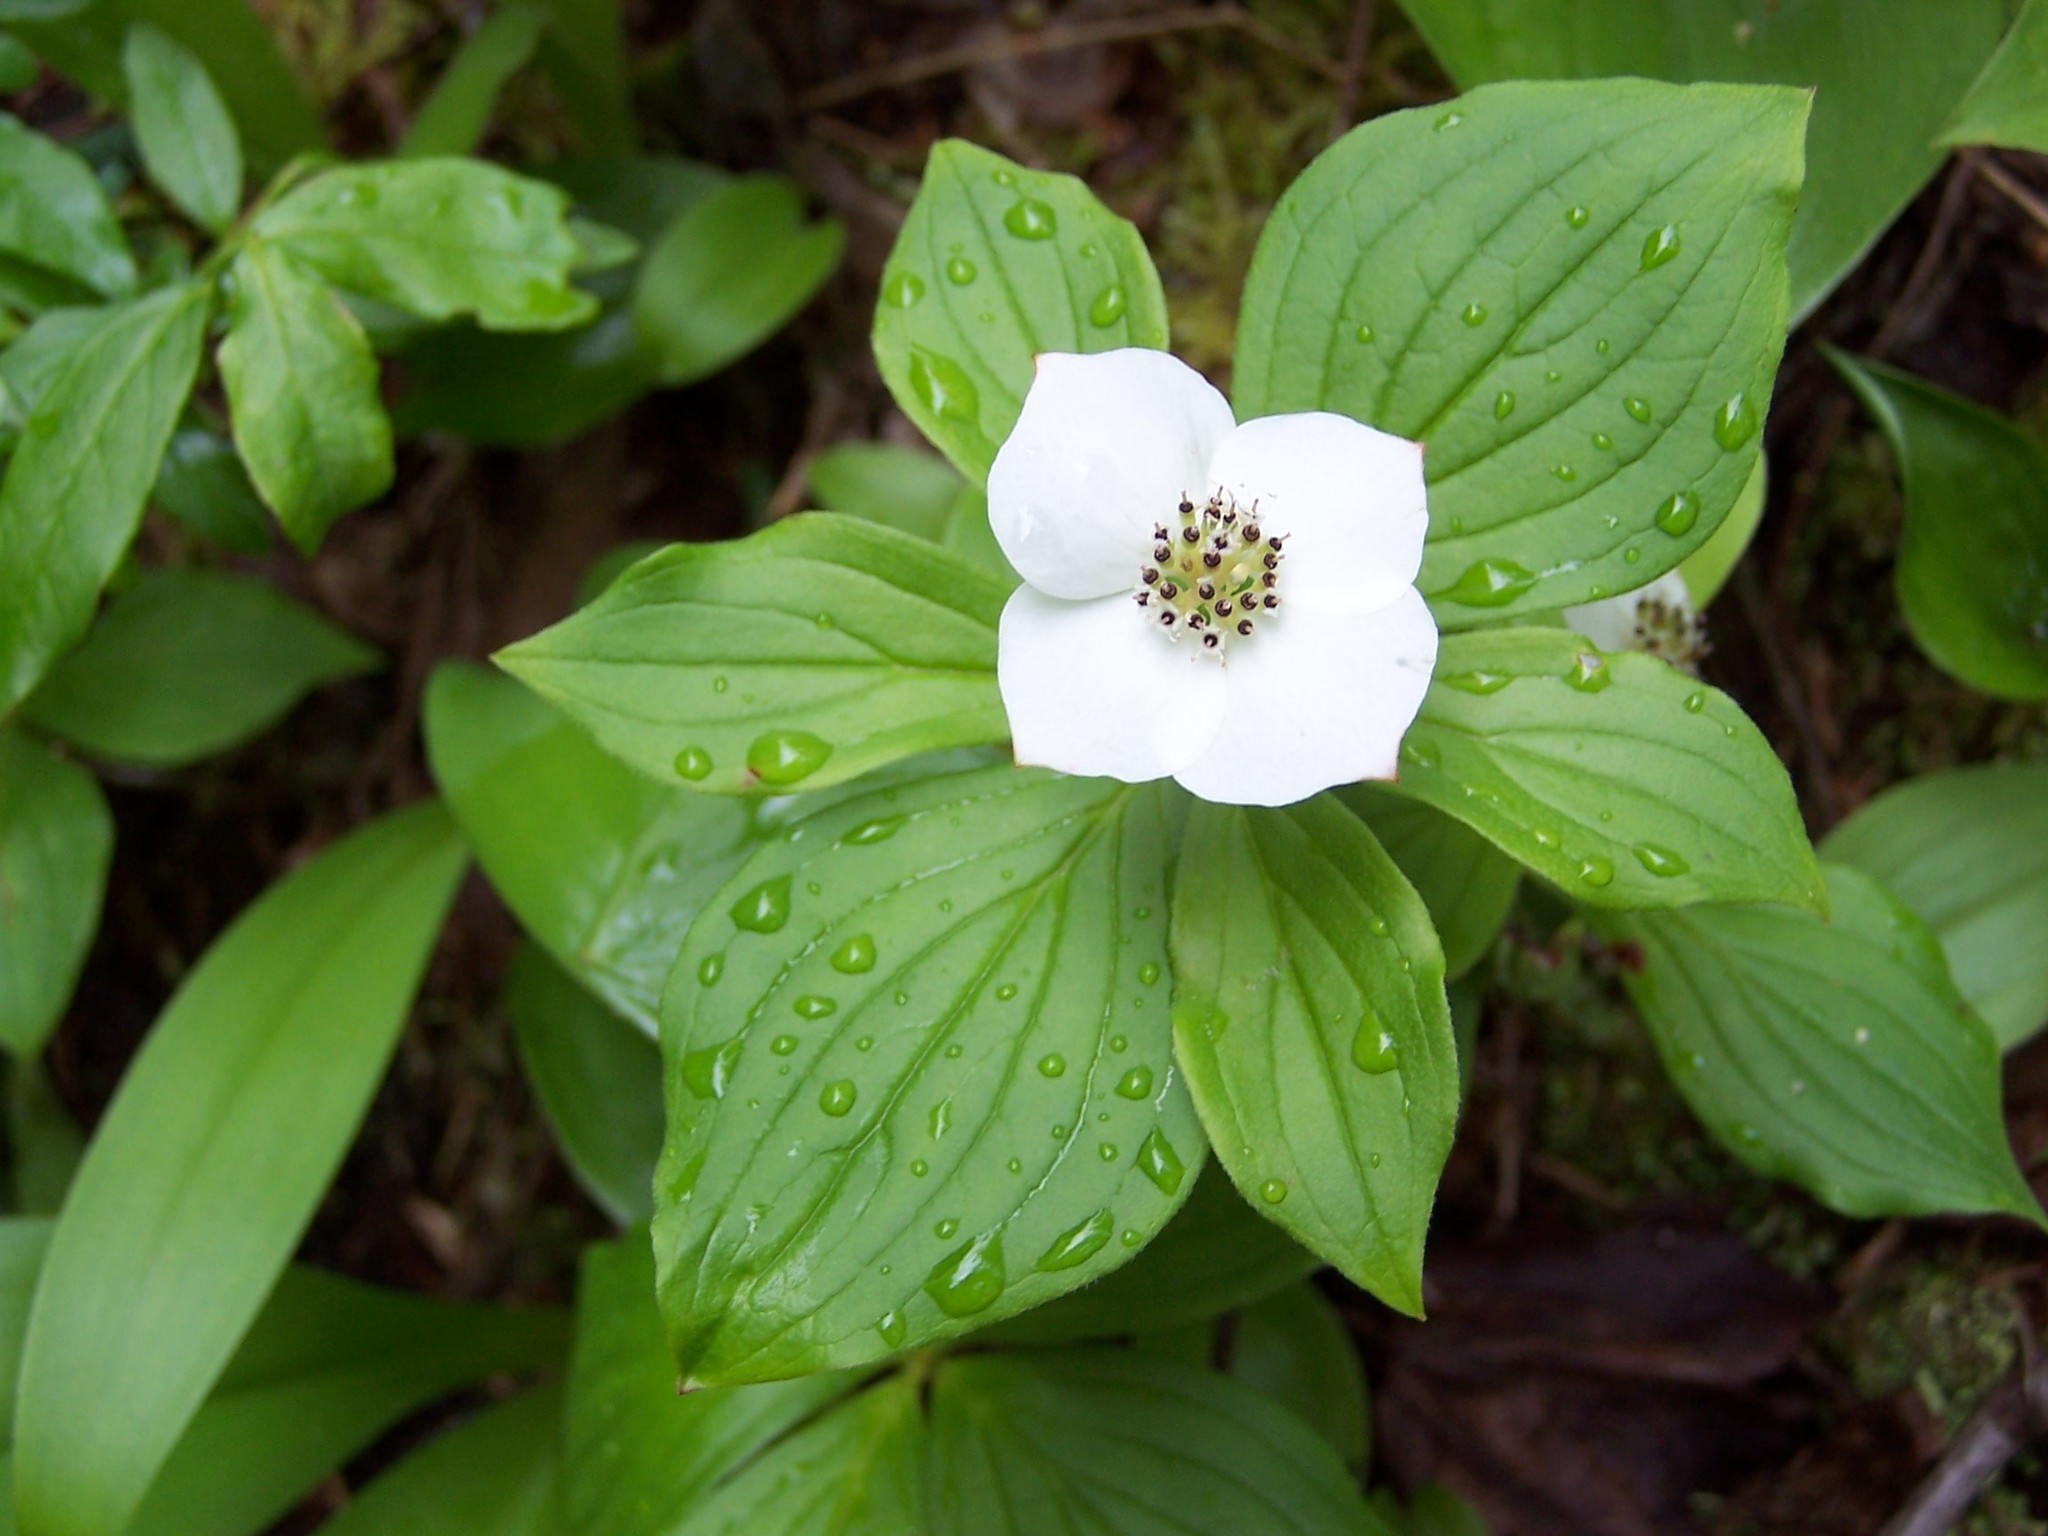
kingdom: Plantae
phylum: Tracheophyta
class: Magnoliopsida
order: Cornales
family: Cornaceae
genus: Cornus
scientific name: Cornus canadensis
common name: Creeping dogwood
